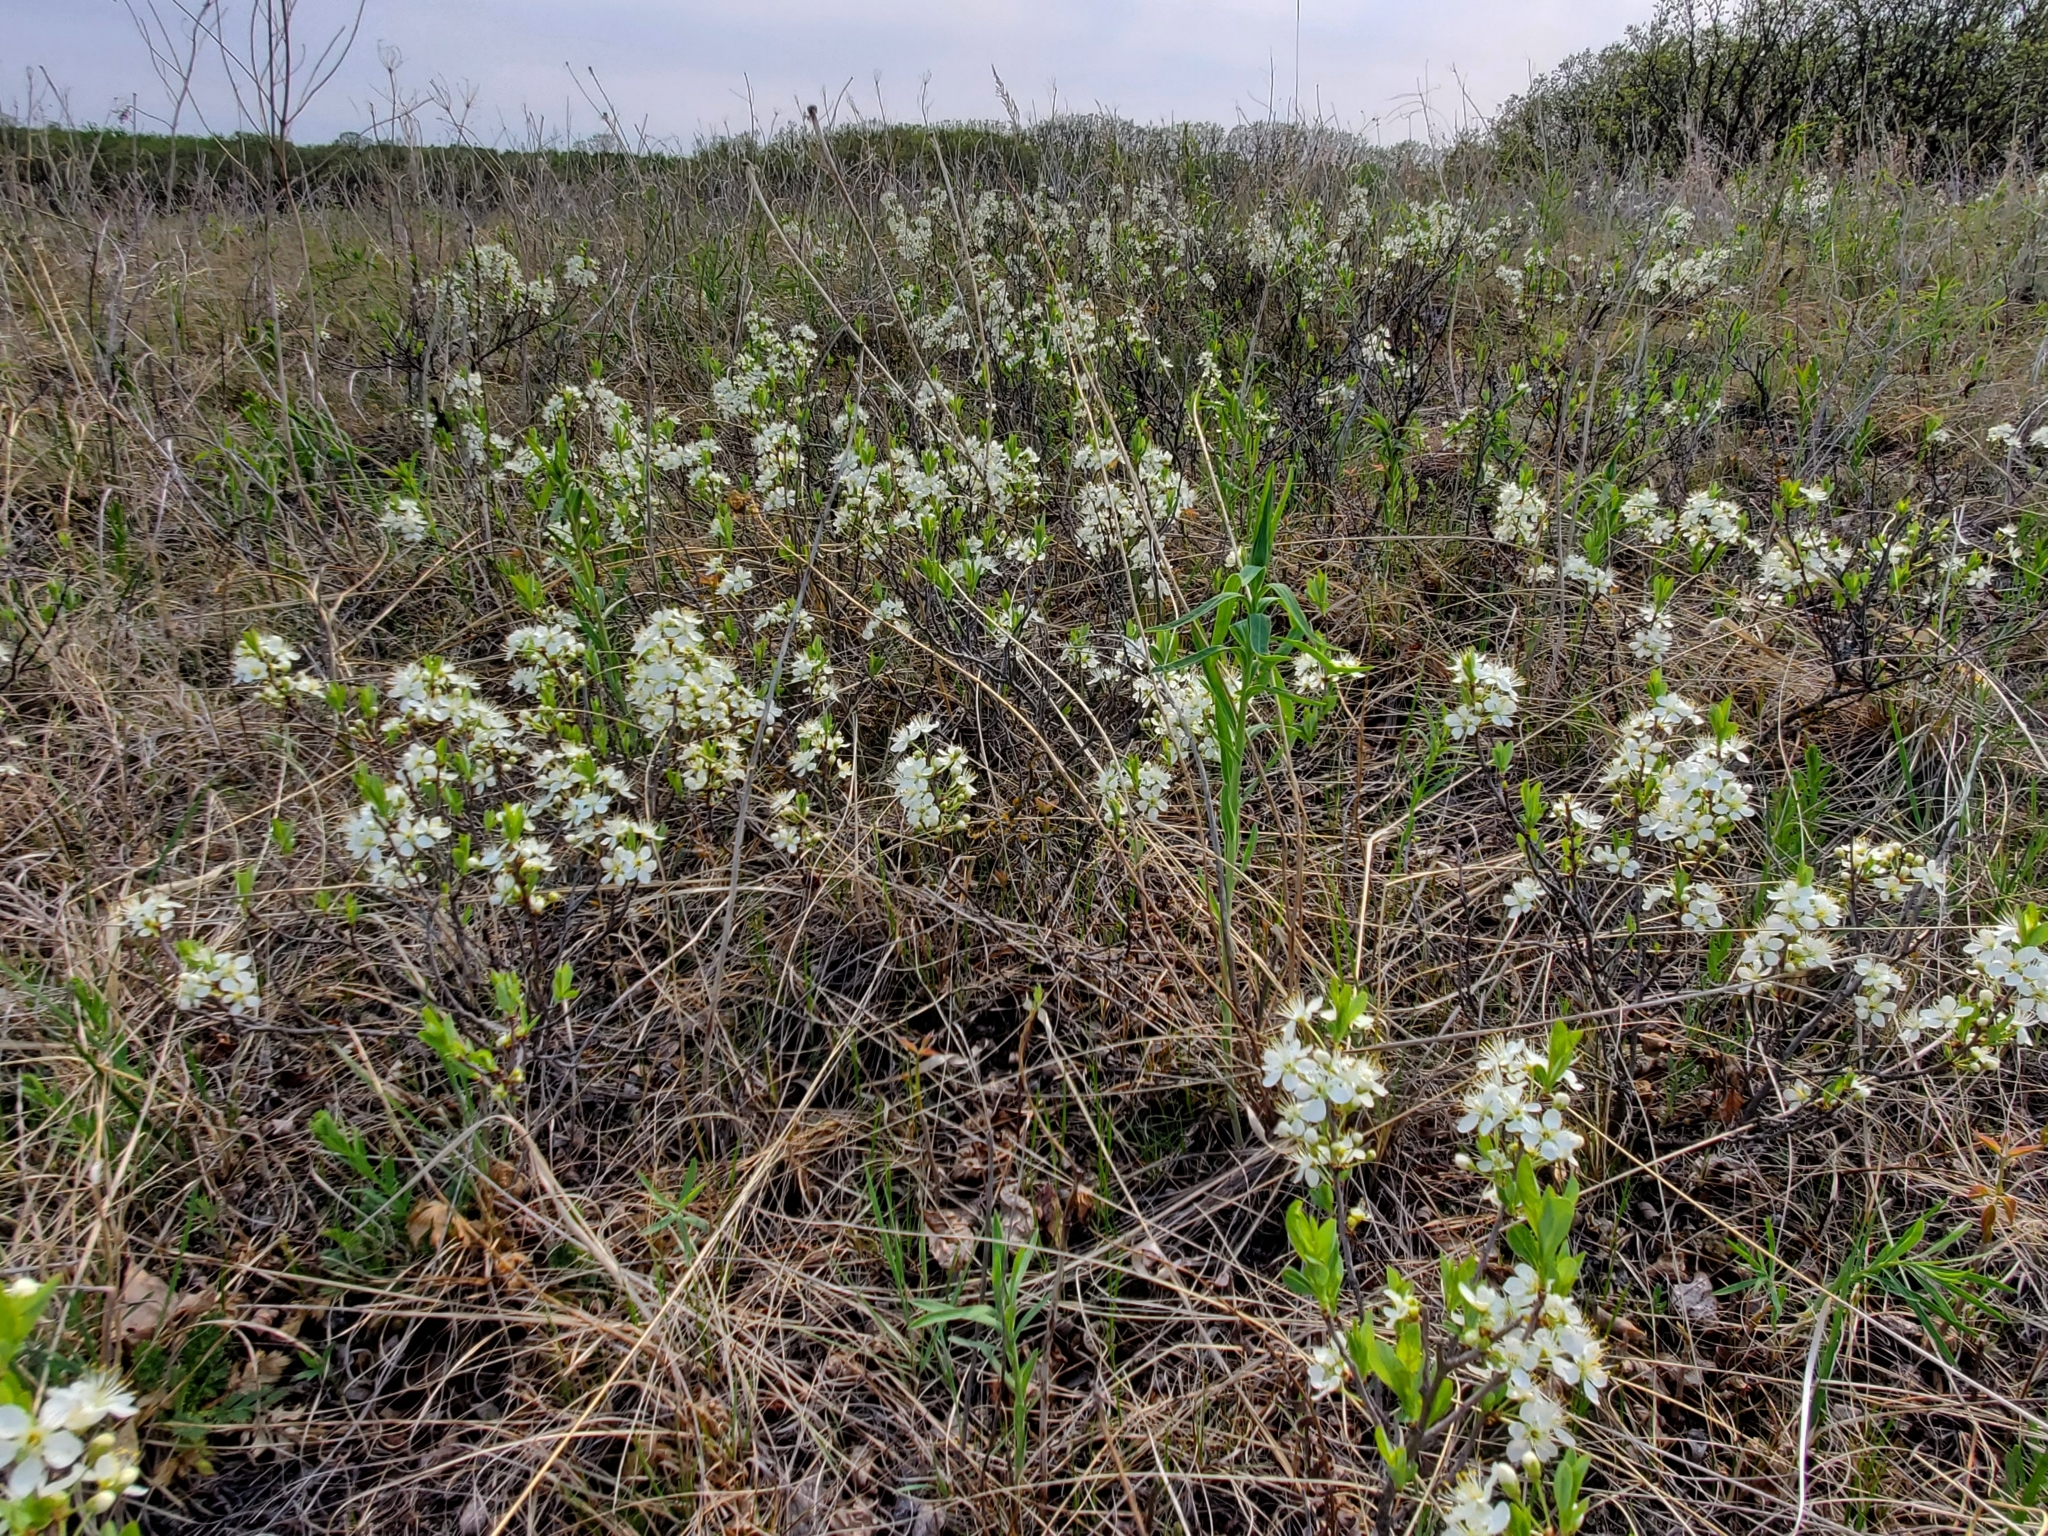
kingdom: Plantae
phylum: Tracheophyta
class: Magnoliopsida
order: Rosales
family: Rosaceae
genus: Prunus
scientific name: Prunus pumila
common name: Dwarf cherry
